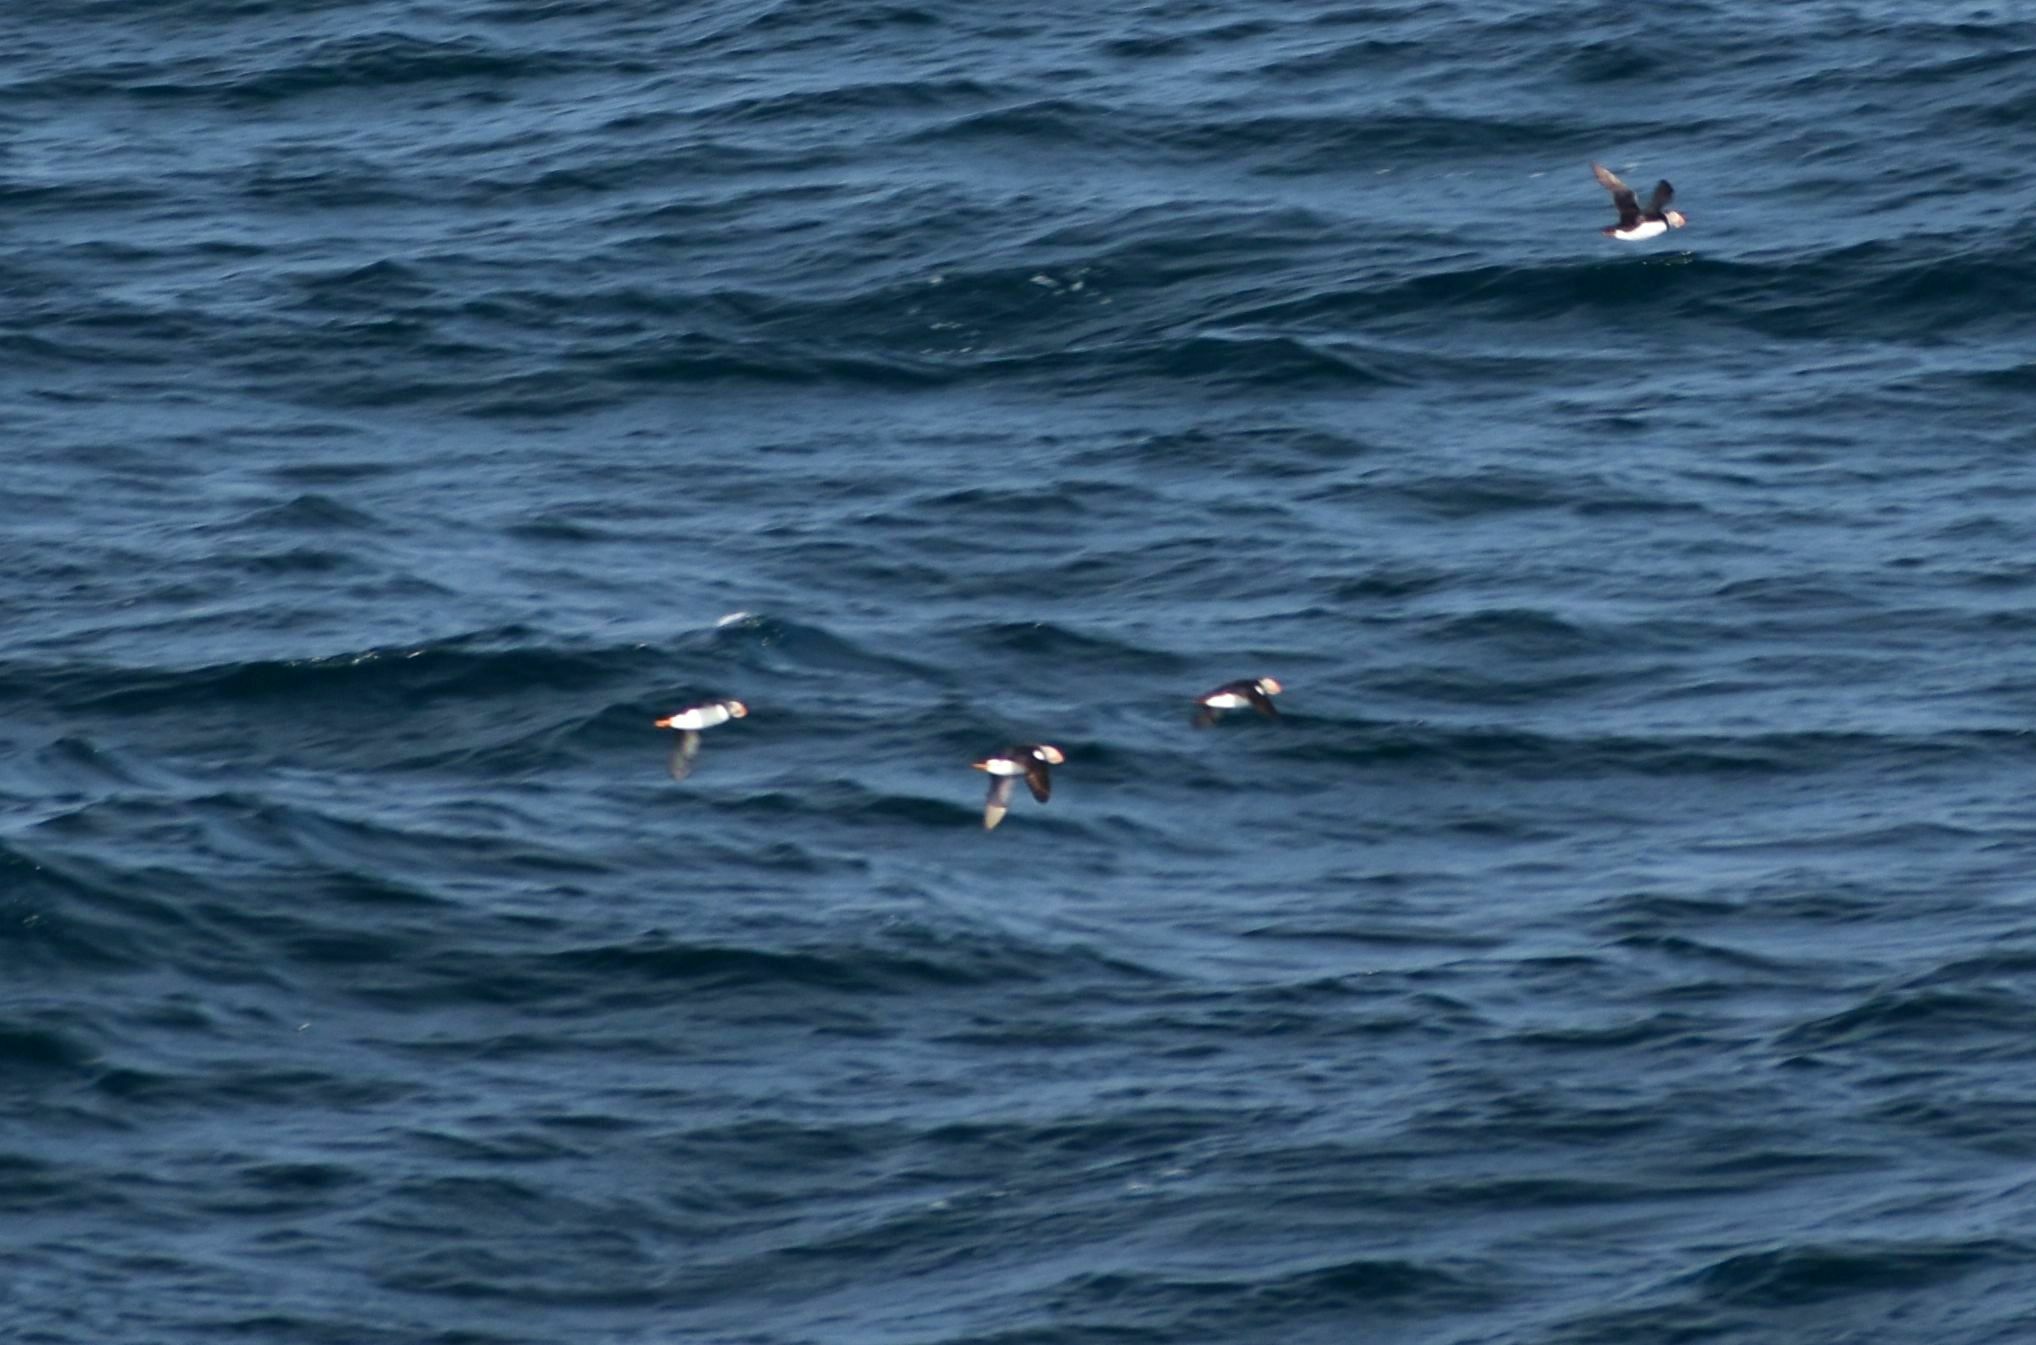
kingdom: Animalia
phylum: Chordata
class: Aves
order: Charadriiformes
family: Alcidae
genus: Fratercula
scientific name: Fratercula arctica
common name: Atlantic puffin
